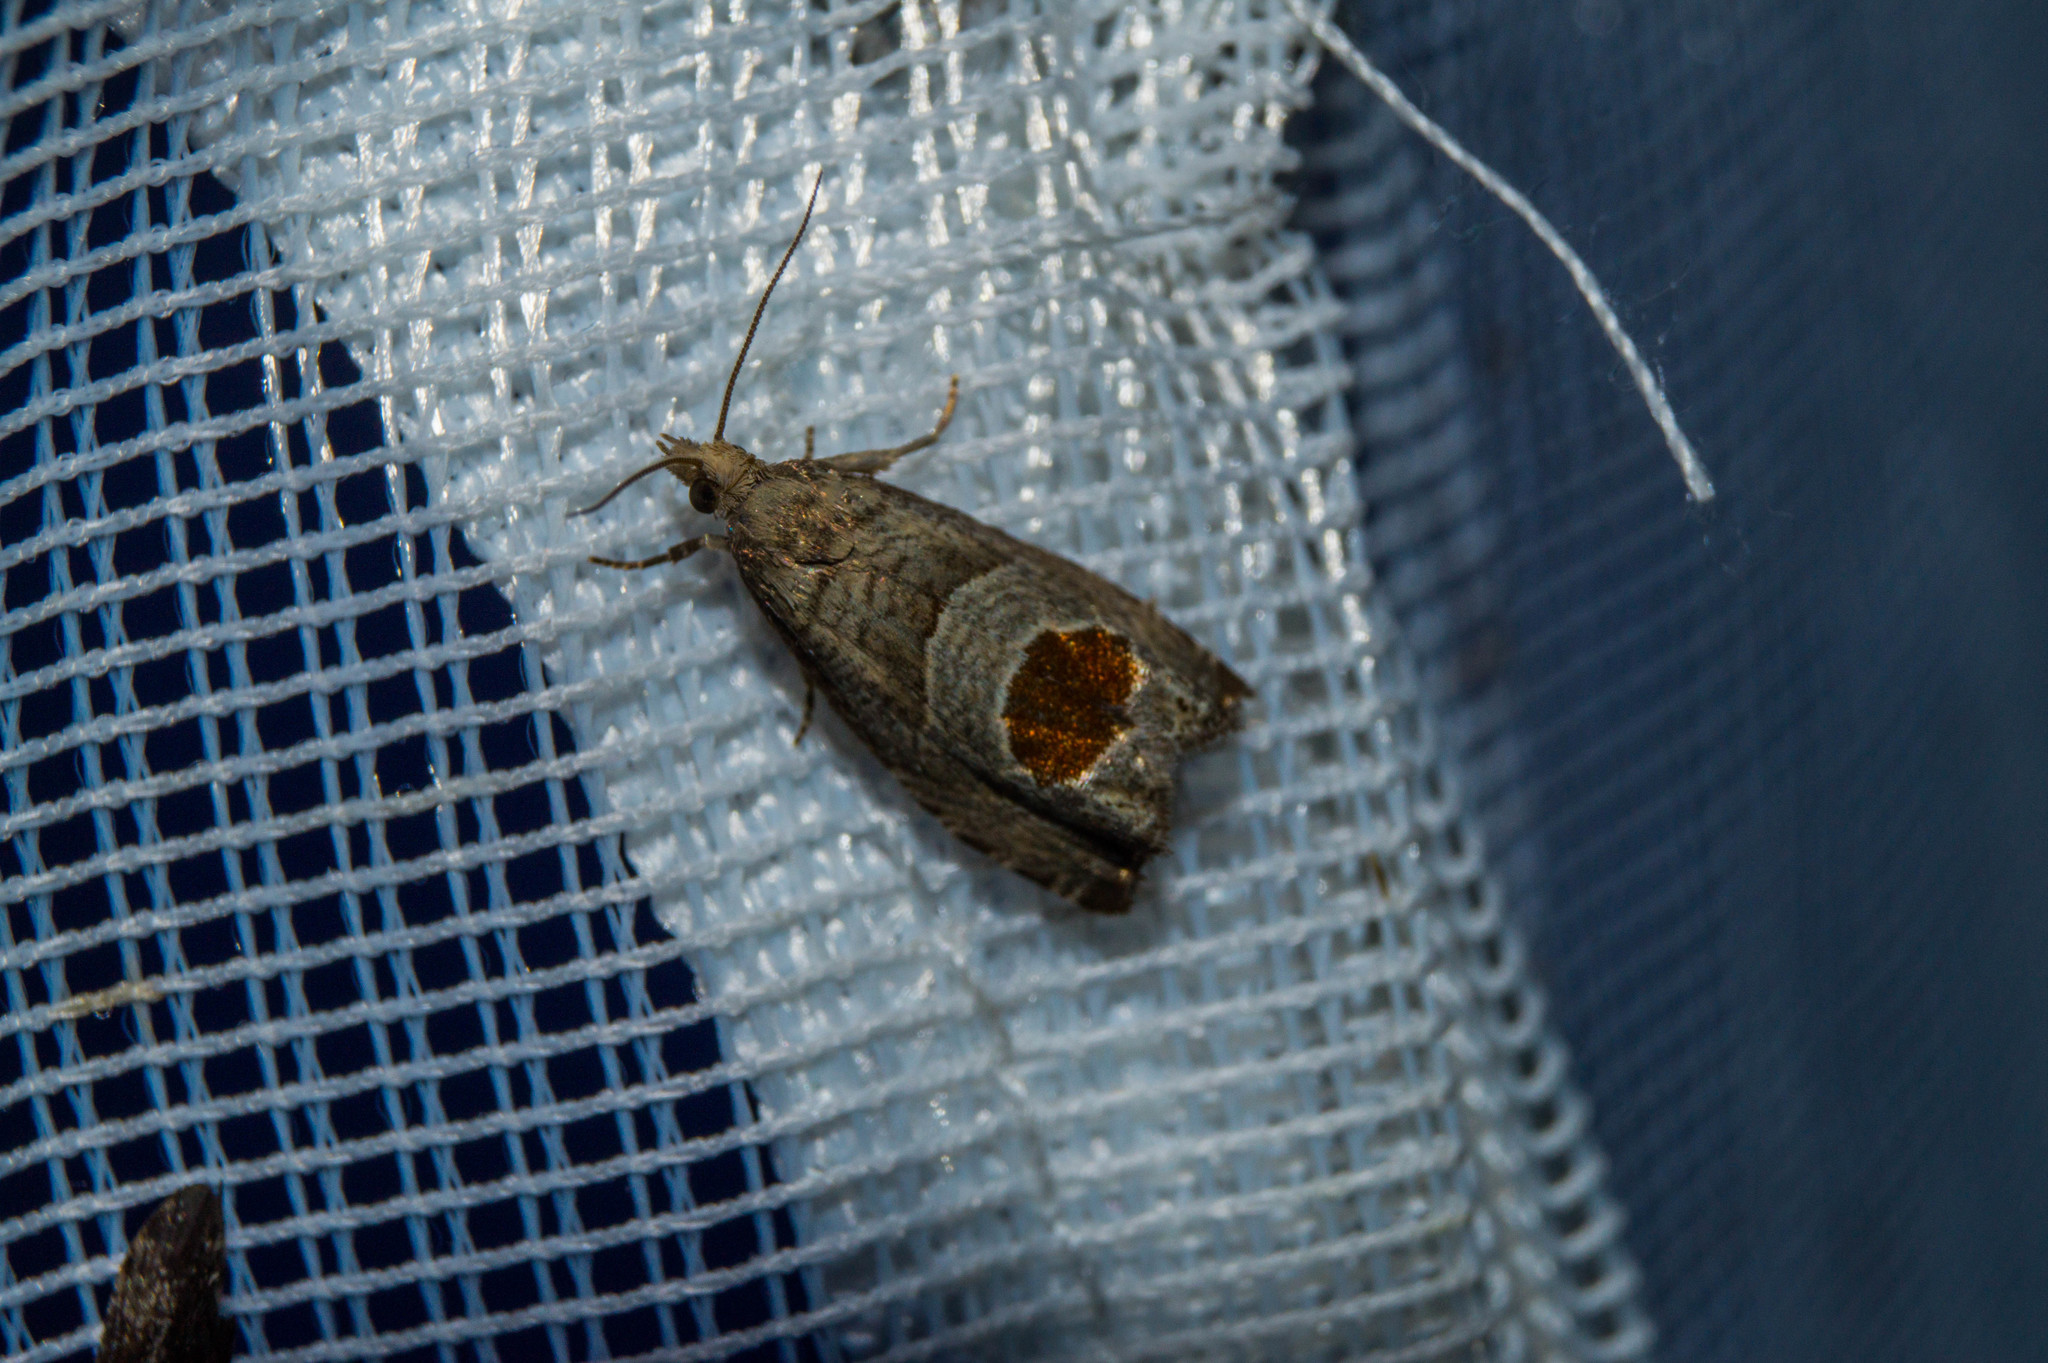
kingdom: Animalia
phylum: Arthropoda
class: Insecta
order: Lepidoptera
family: Tortricidae
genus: Notocelia
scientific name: Notocelia uddmanniana
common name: Bramble shoot moth
